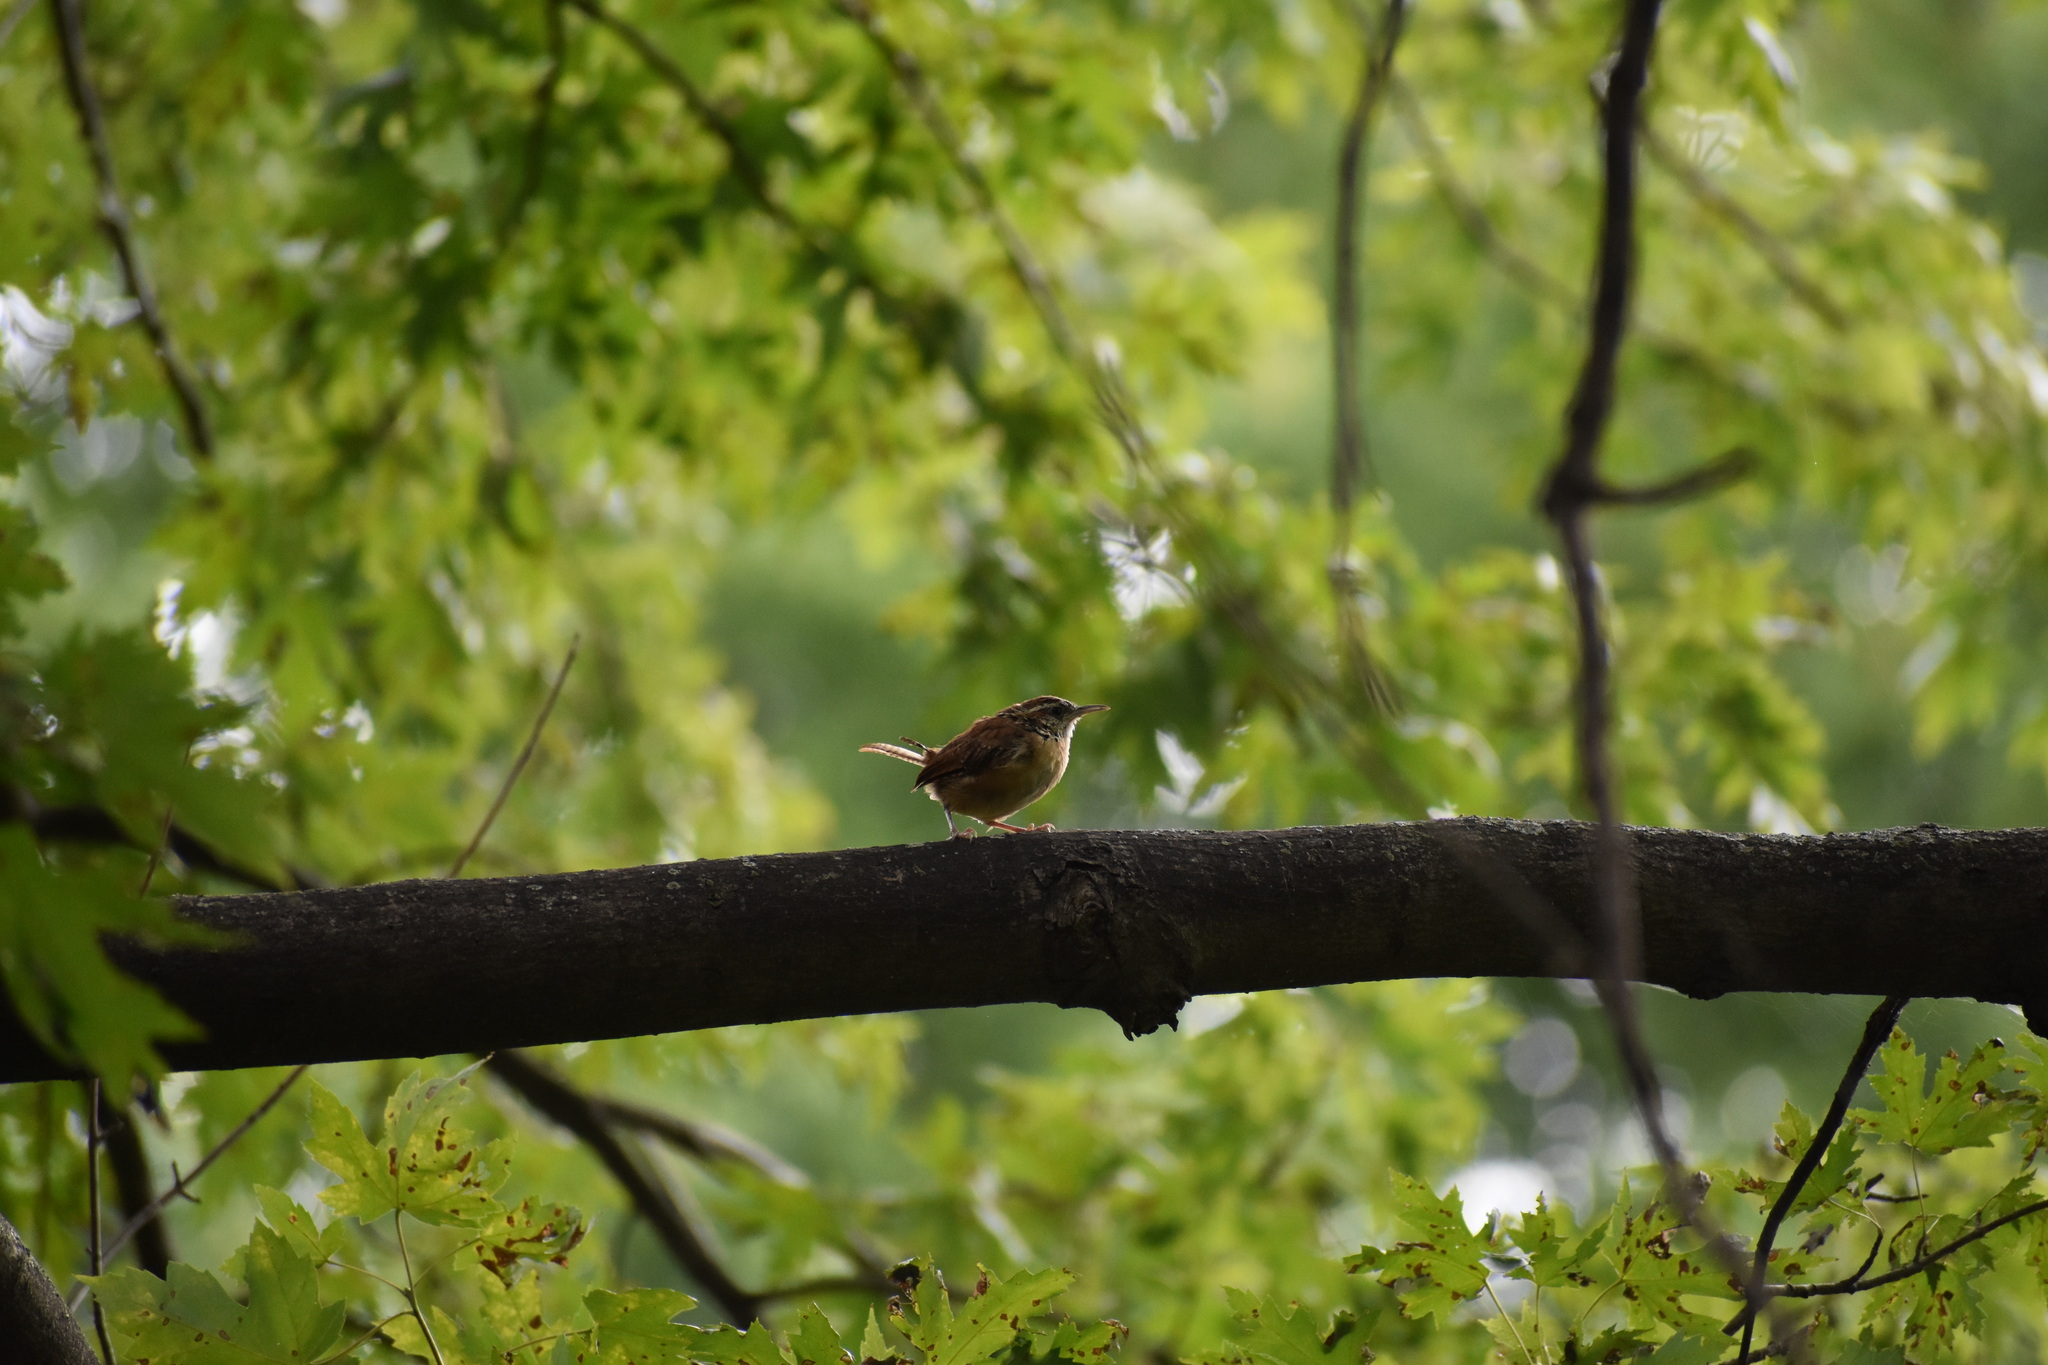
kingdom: Animalia
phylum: Chordata
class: Aves
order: Passeriformes
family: Troglodytidae
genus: Thryothorus
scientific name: Thryothorus ludovicianus
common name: Carolina wren
